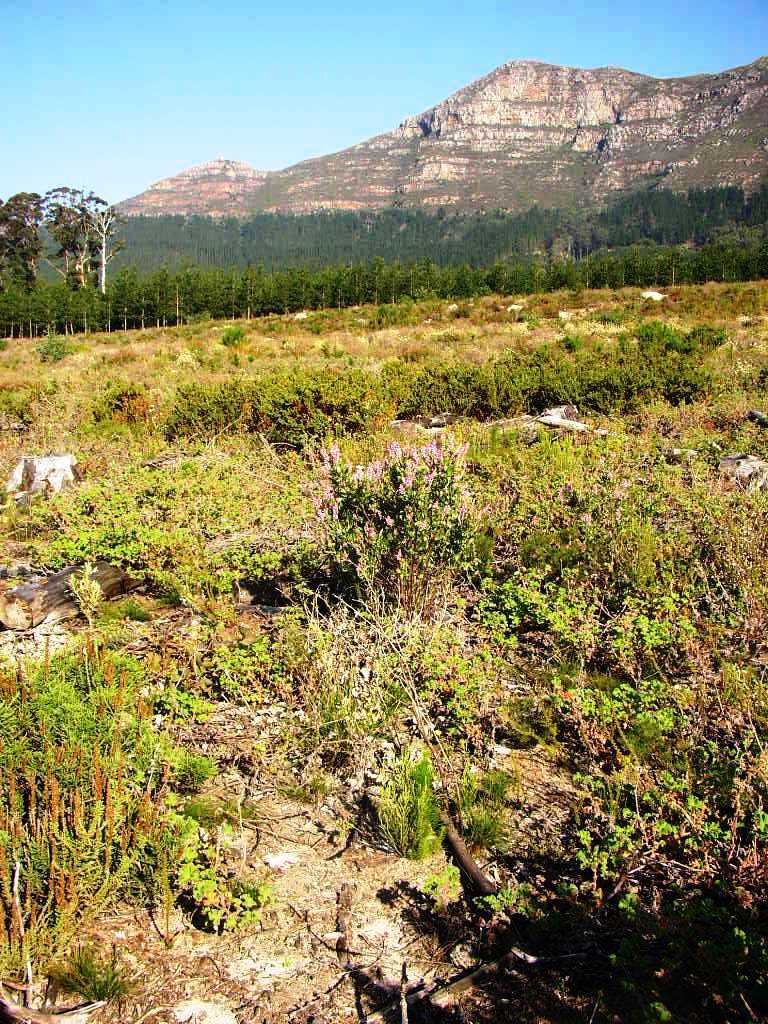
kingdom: Plantae
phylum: Tracheophyta
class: Magnoliopsida
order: Fabales
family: Fabaceae
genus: Indigofera
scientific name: Indigofera cytisoides
